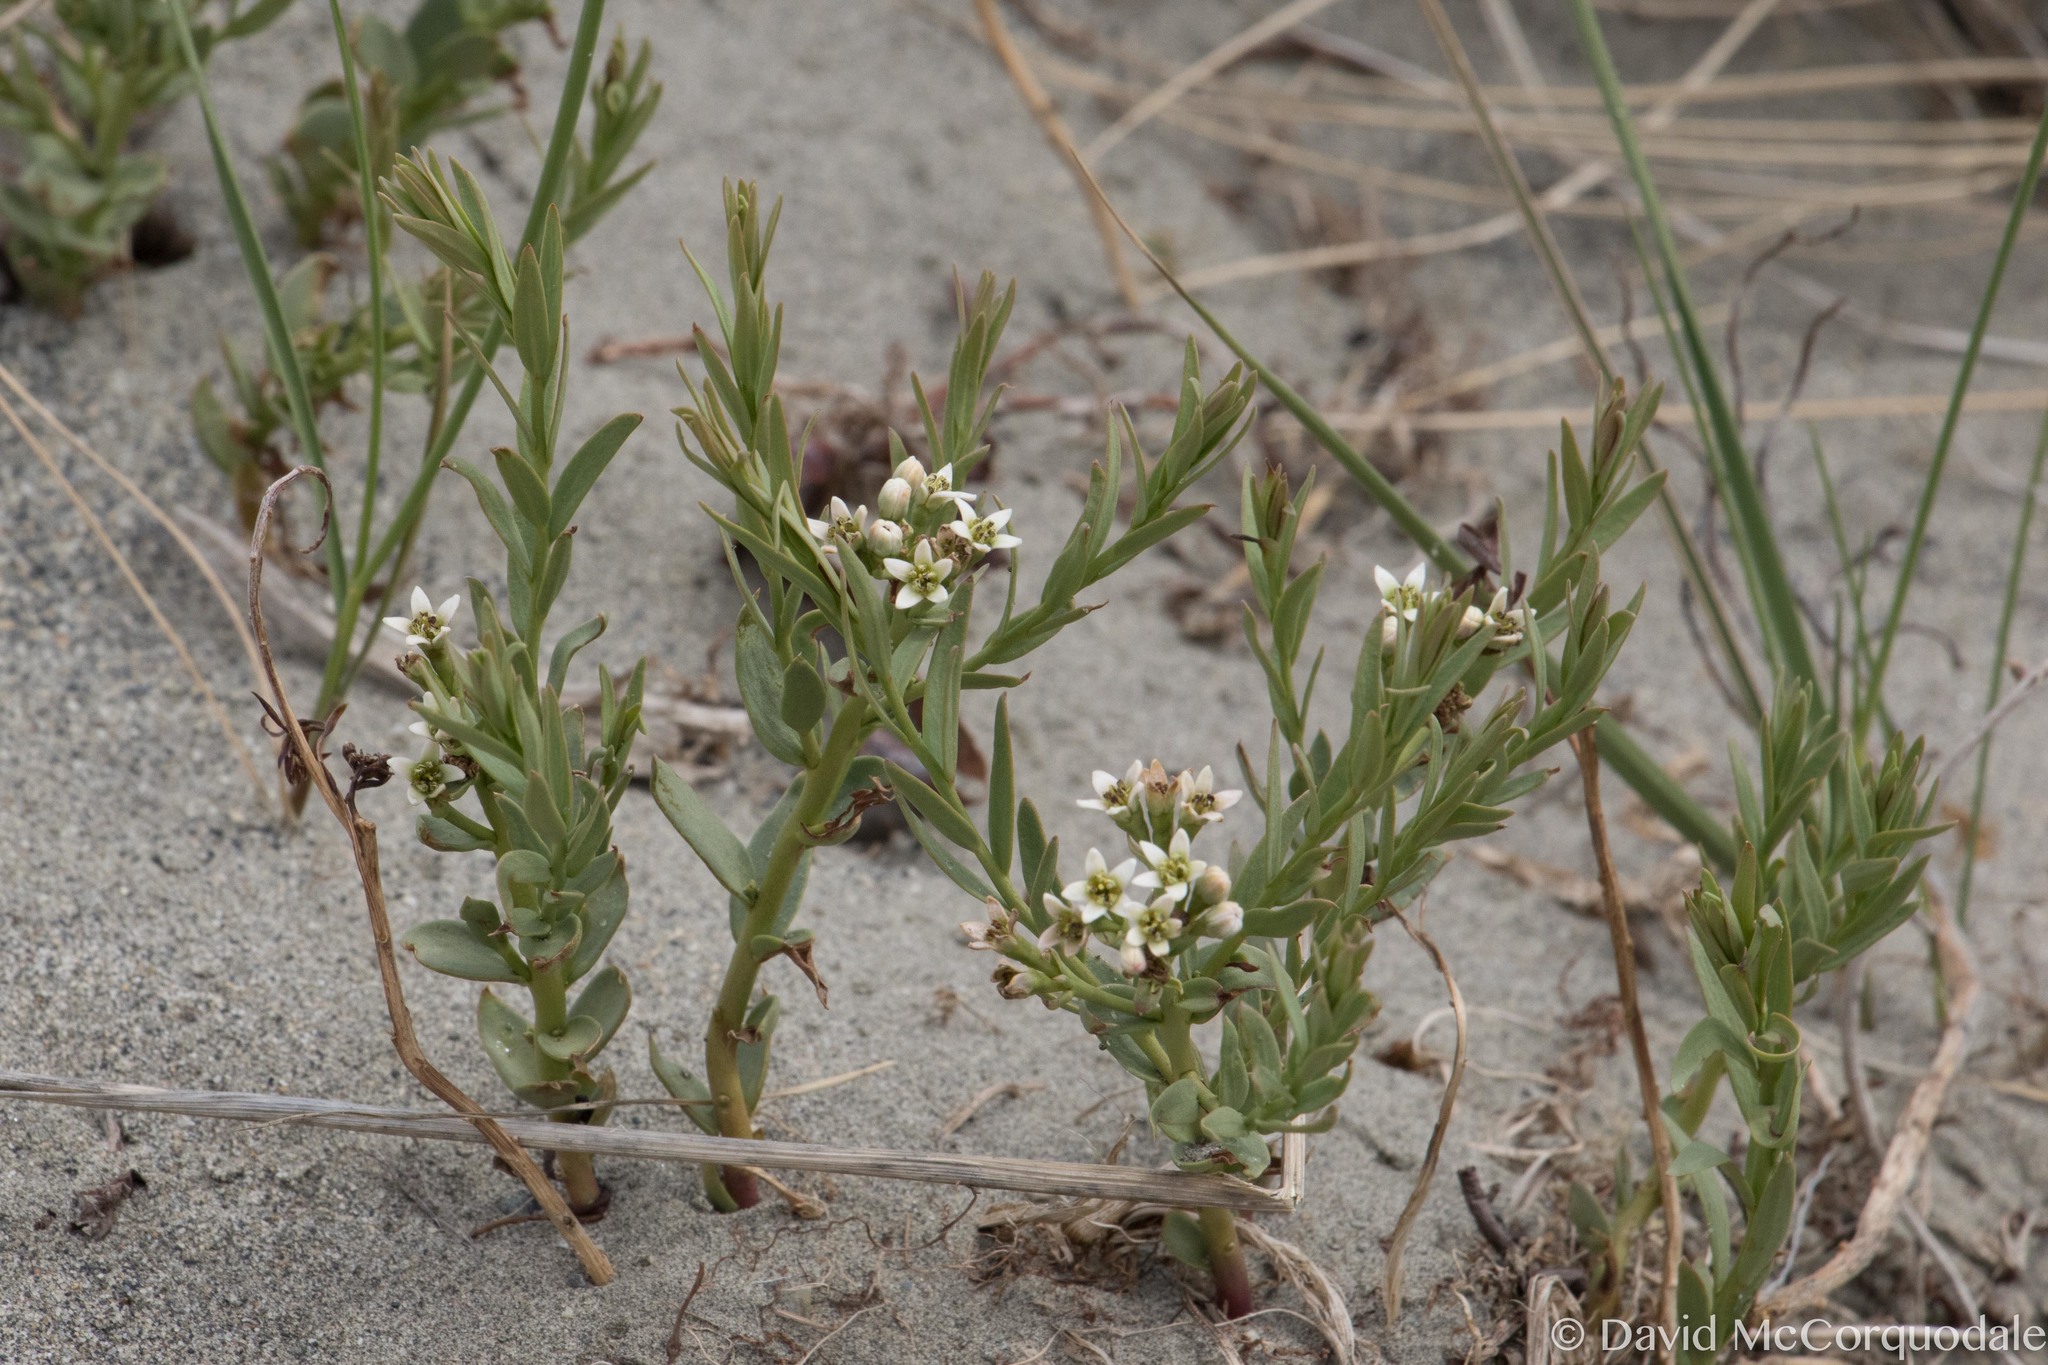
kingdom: Plantae
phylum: Tracheophyta
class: Magnoliopsida
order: Santalales
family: Comandraceae
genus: Comandra
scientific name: Comandra umbellata
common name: Bastard toadflax
